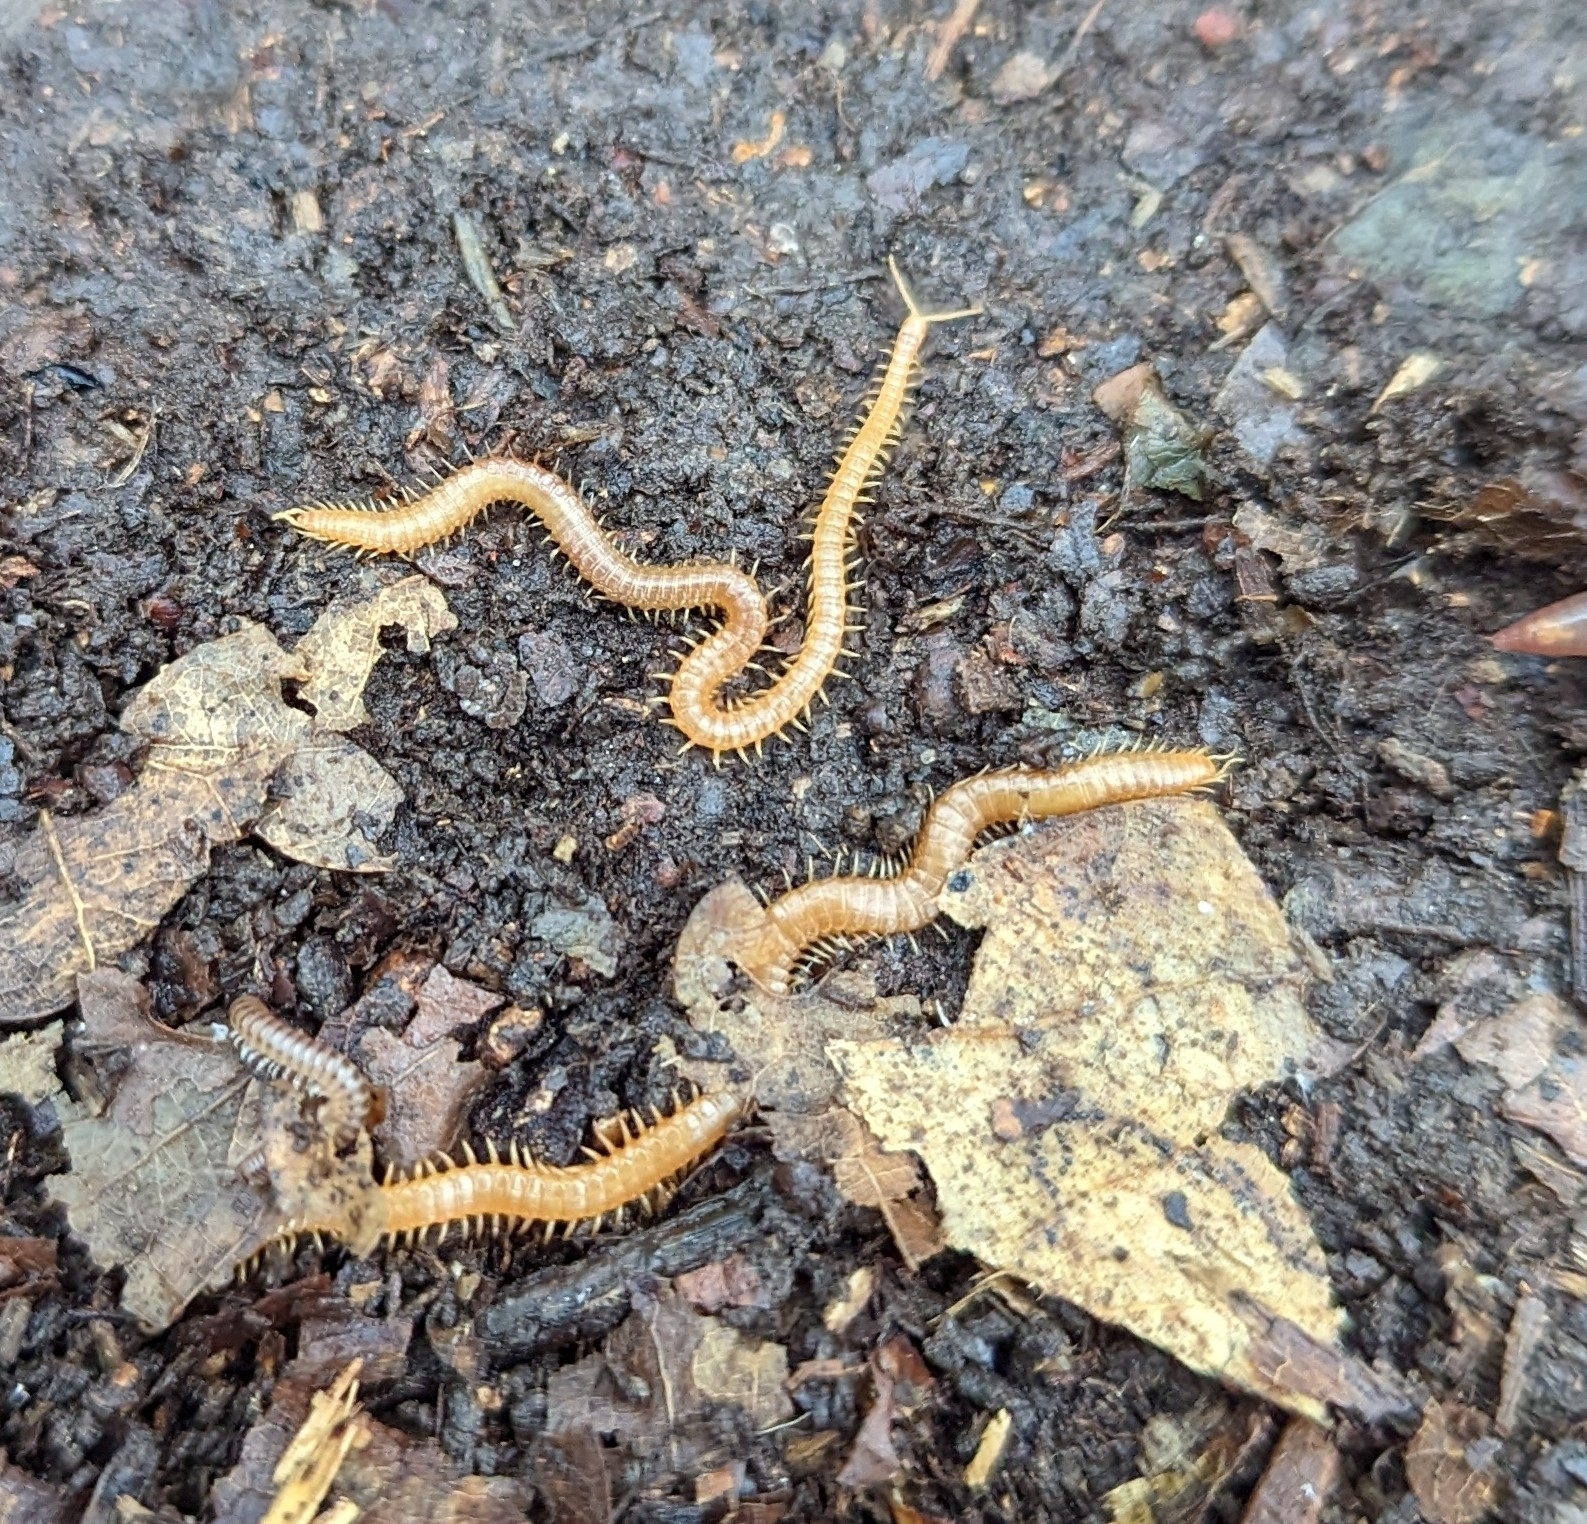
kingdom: Animalia
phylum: Arthropoda
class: Chilopoda
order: Geophilomorpha
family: Himantariidae
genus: Stigmatogaster
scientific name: Stigmatogaster subterranea
